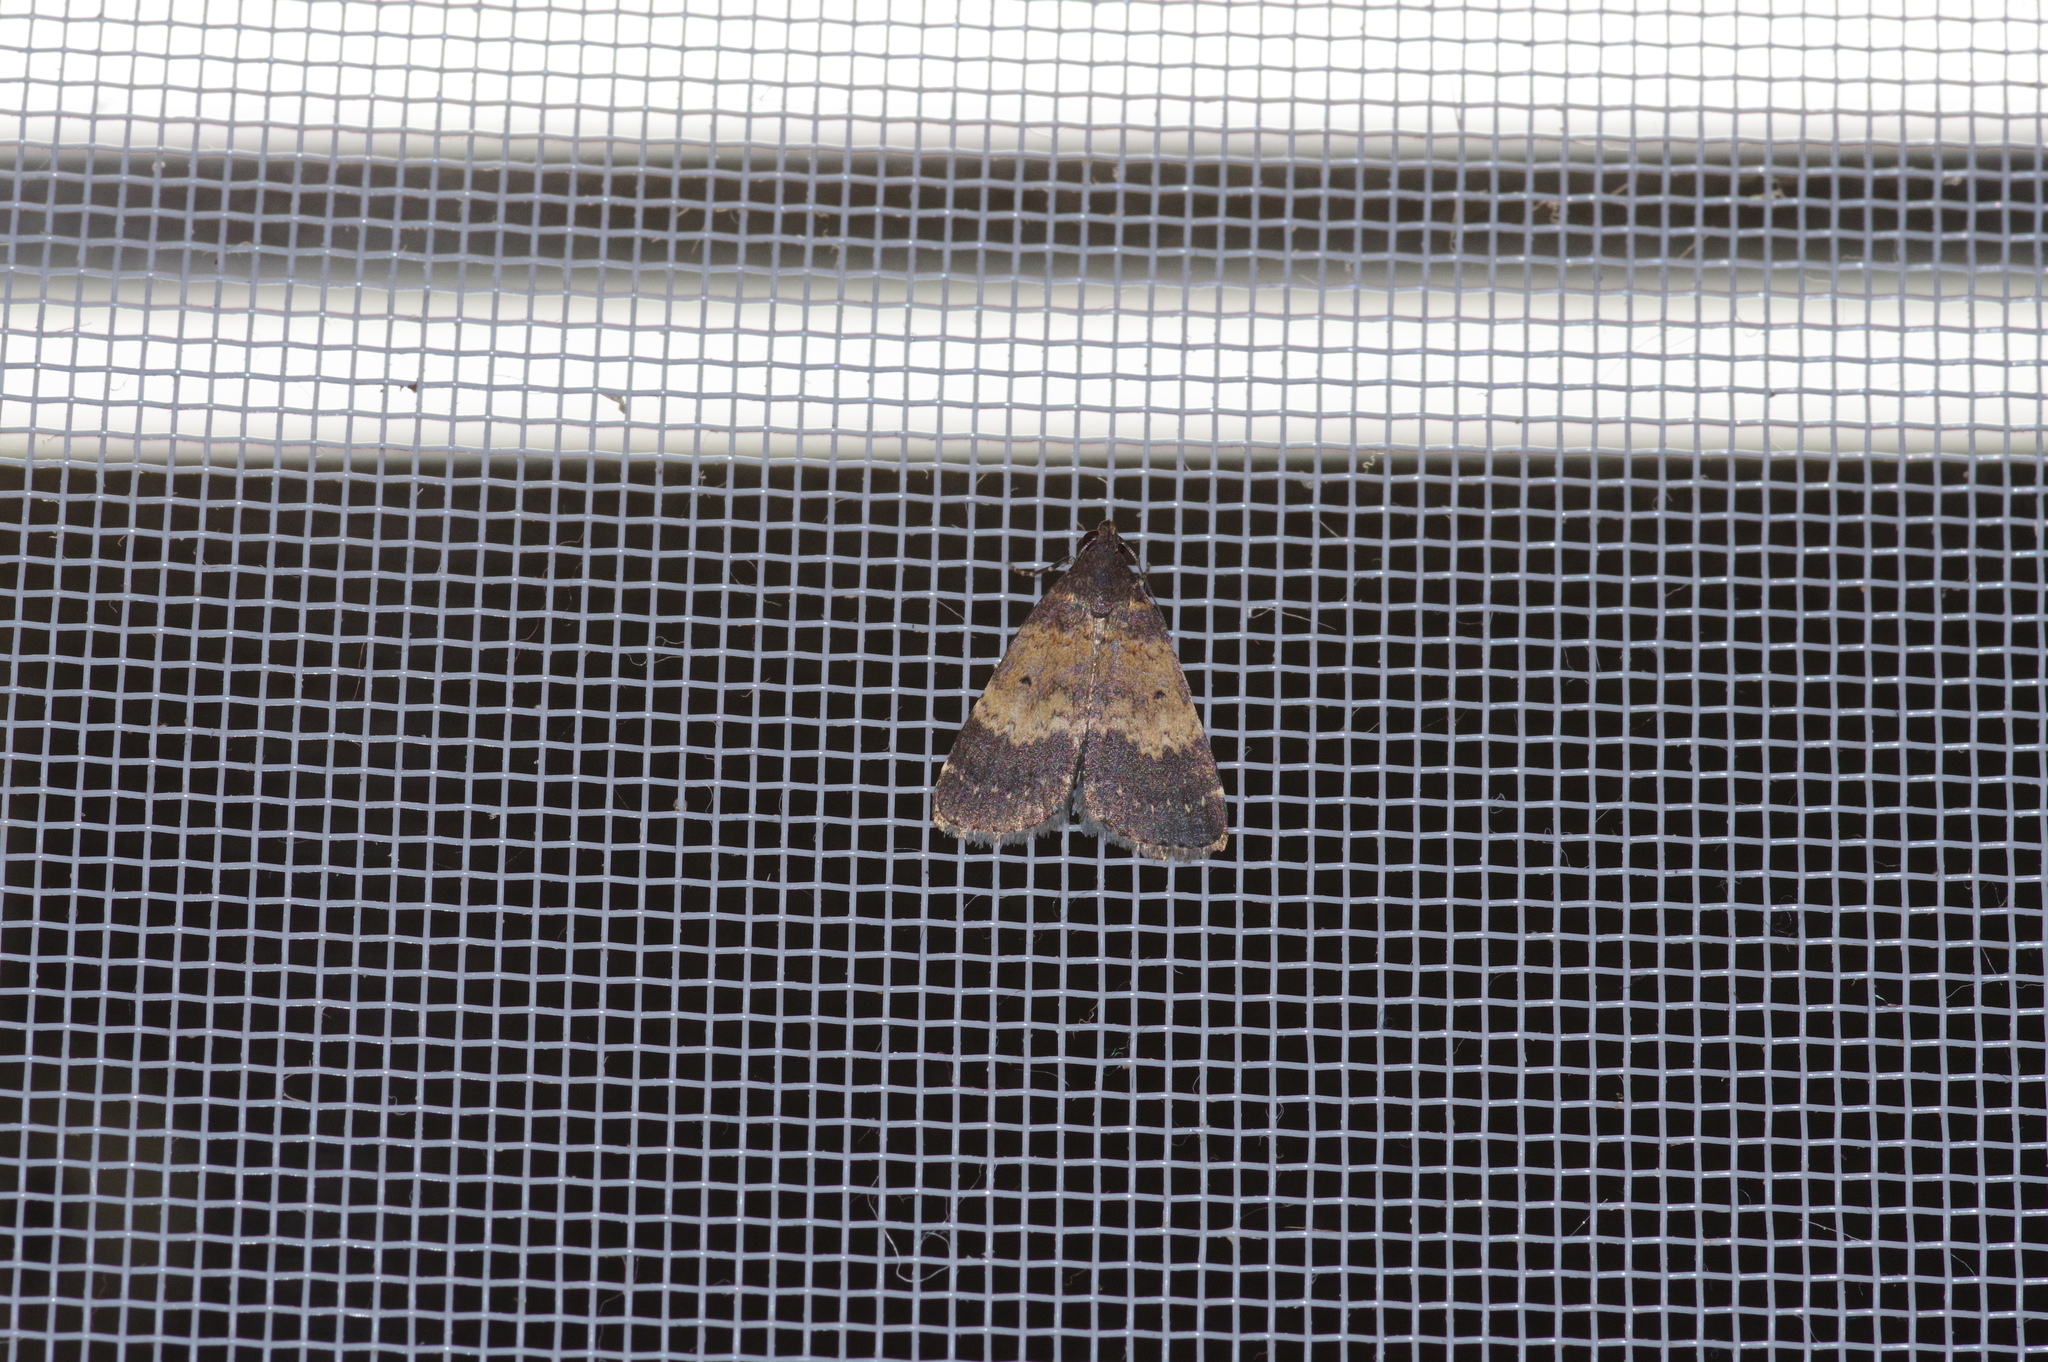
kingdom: Animalia
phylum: Arthropoda
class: Insecta
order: Lepidoptera
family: Erebidae
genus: Hydrillodes
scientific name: Hydrillodes lentalis
